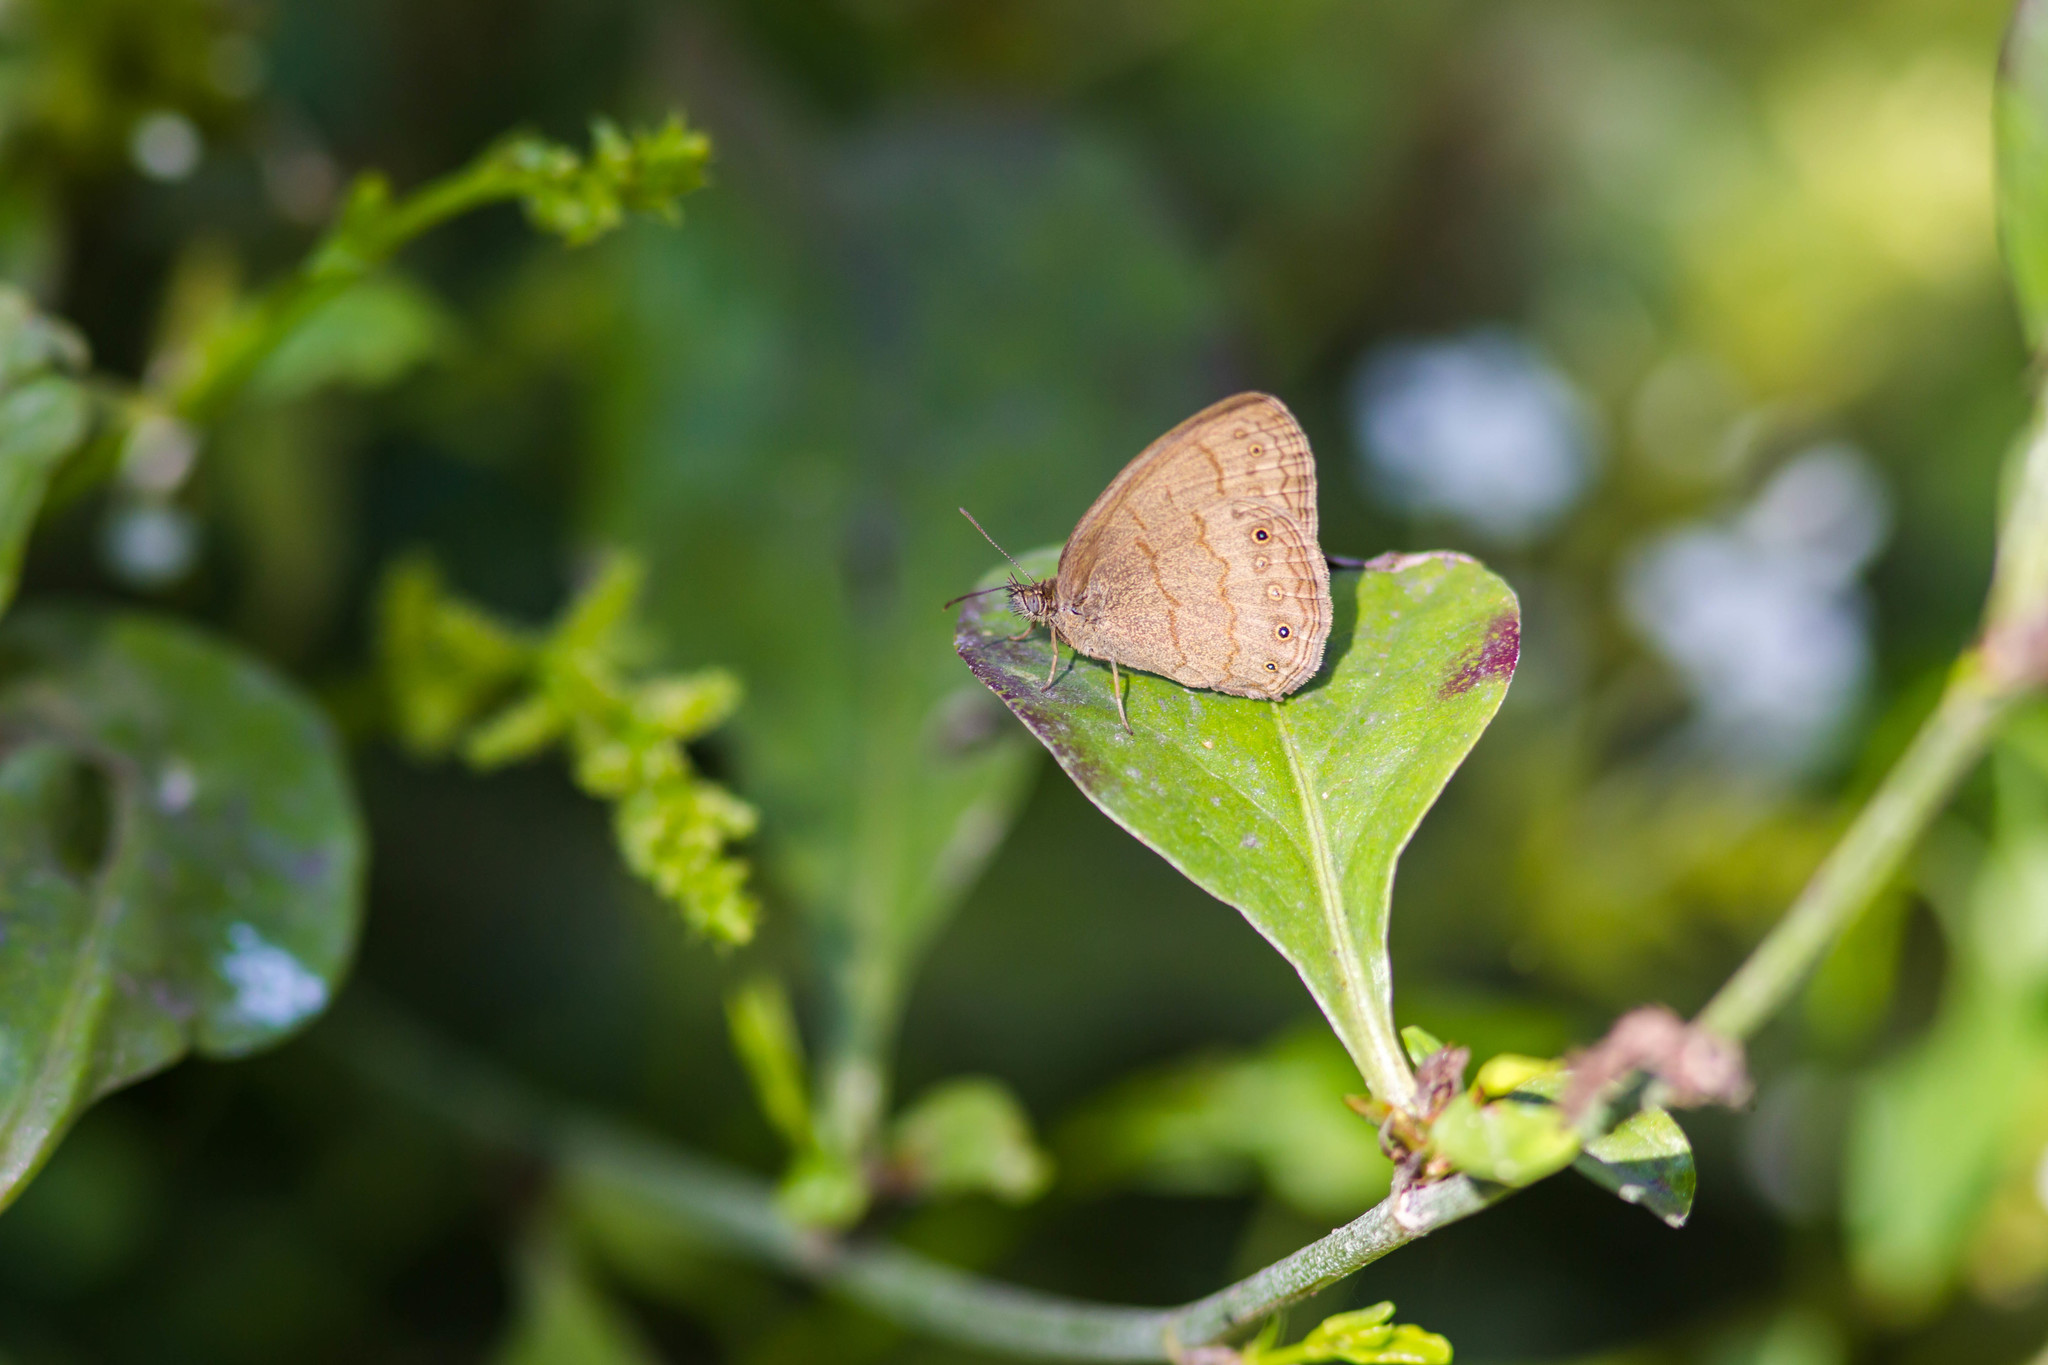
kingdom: Animalia
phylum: Arthropoda
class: Insecta
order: Lepidoptera
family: Nymphalidae
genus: Hermeuptychia
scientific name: Hermeuptychia hermybius
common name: South texas satyr
